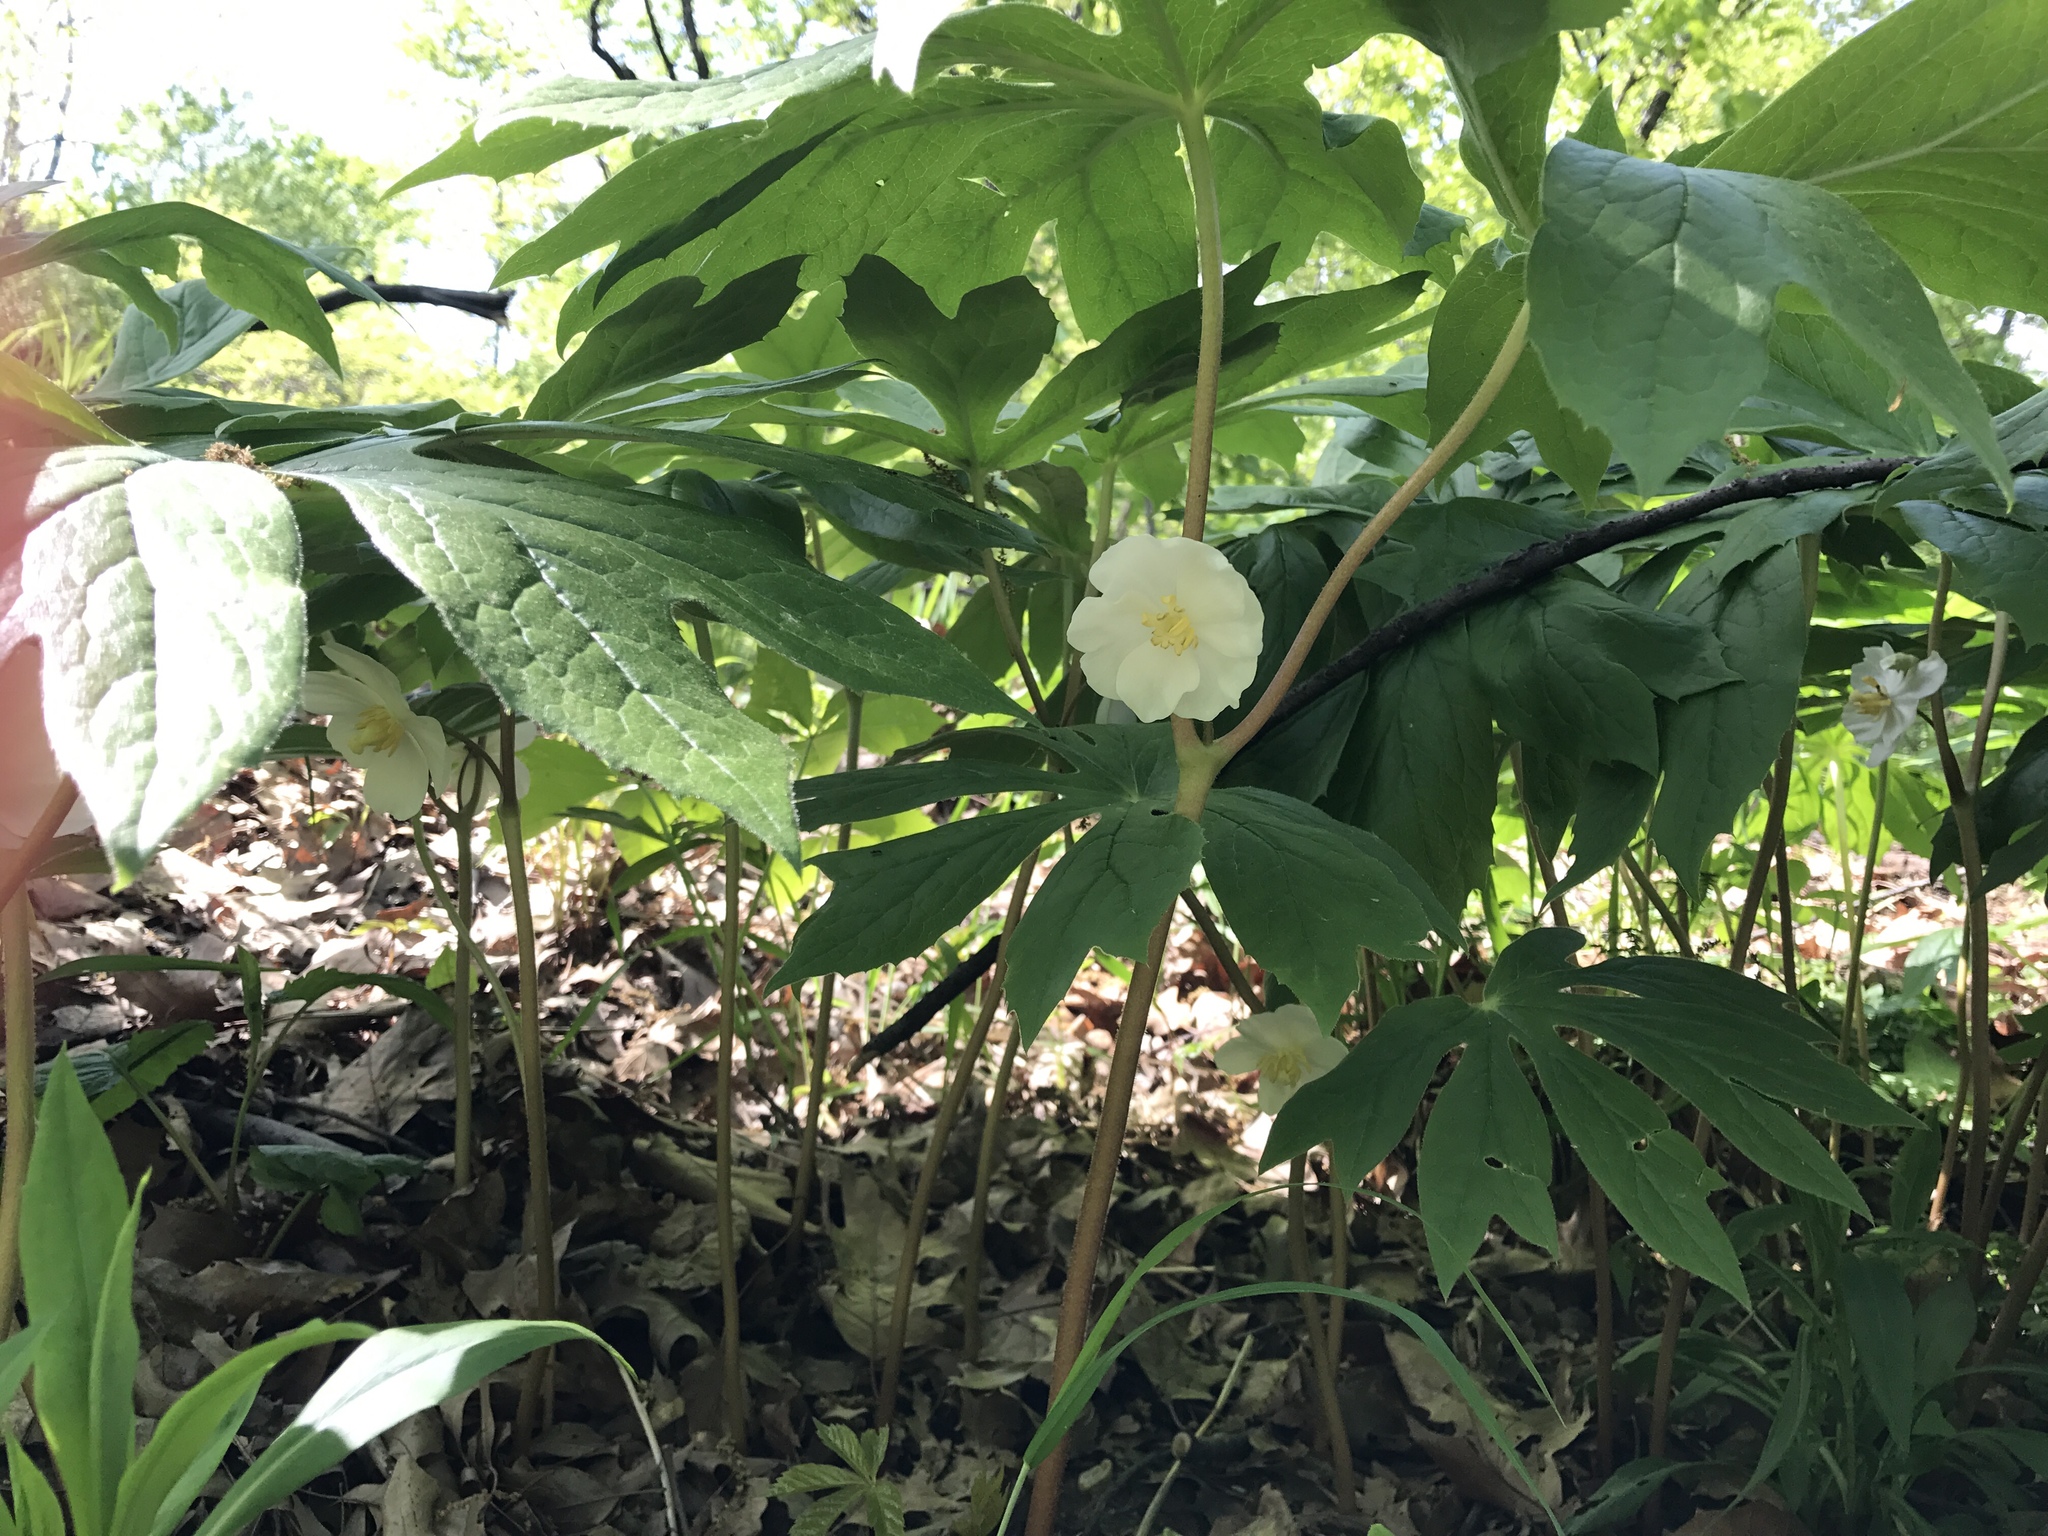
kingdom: Plantae
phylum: Tracheophyta
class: Magnoliopsida
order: Ranunculales
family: Berberidaceae
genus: Podophyllum
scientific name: Podophyllum peltatum
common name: Wild mandrake
